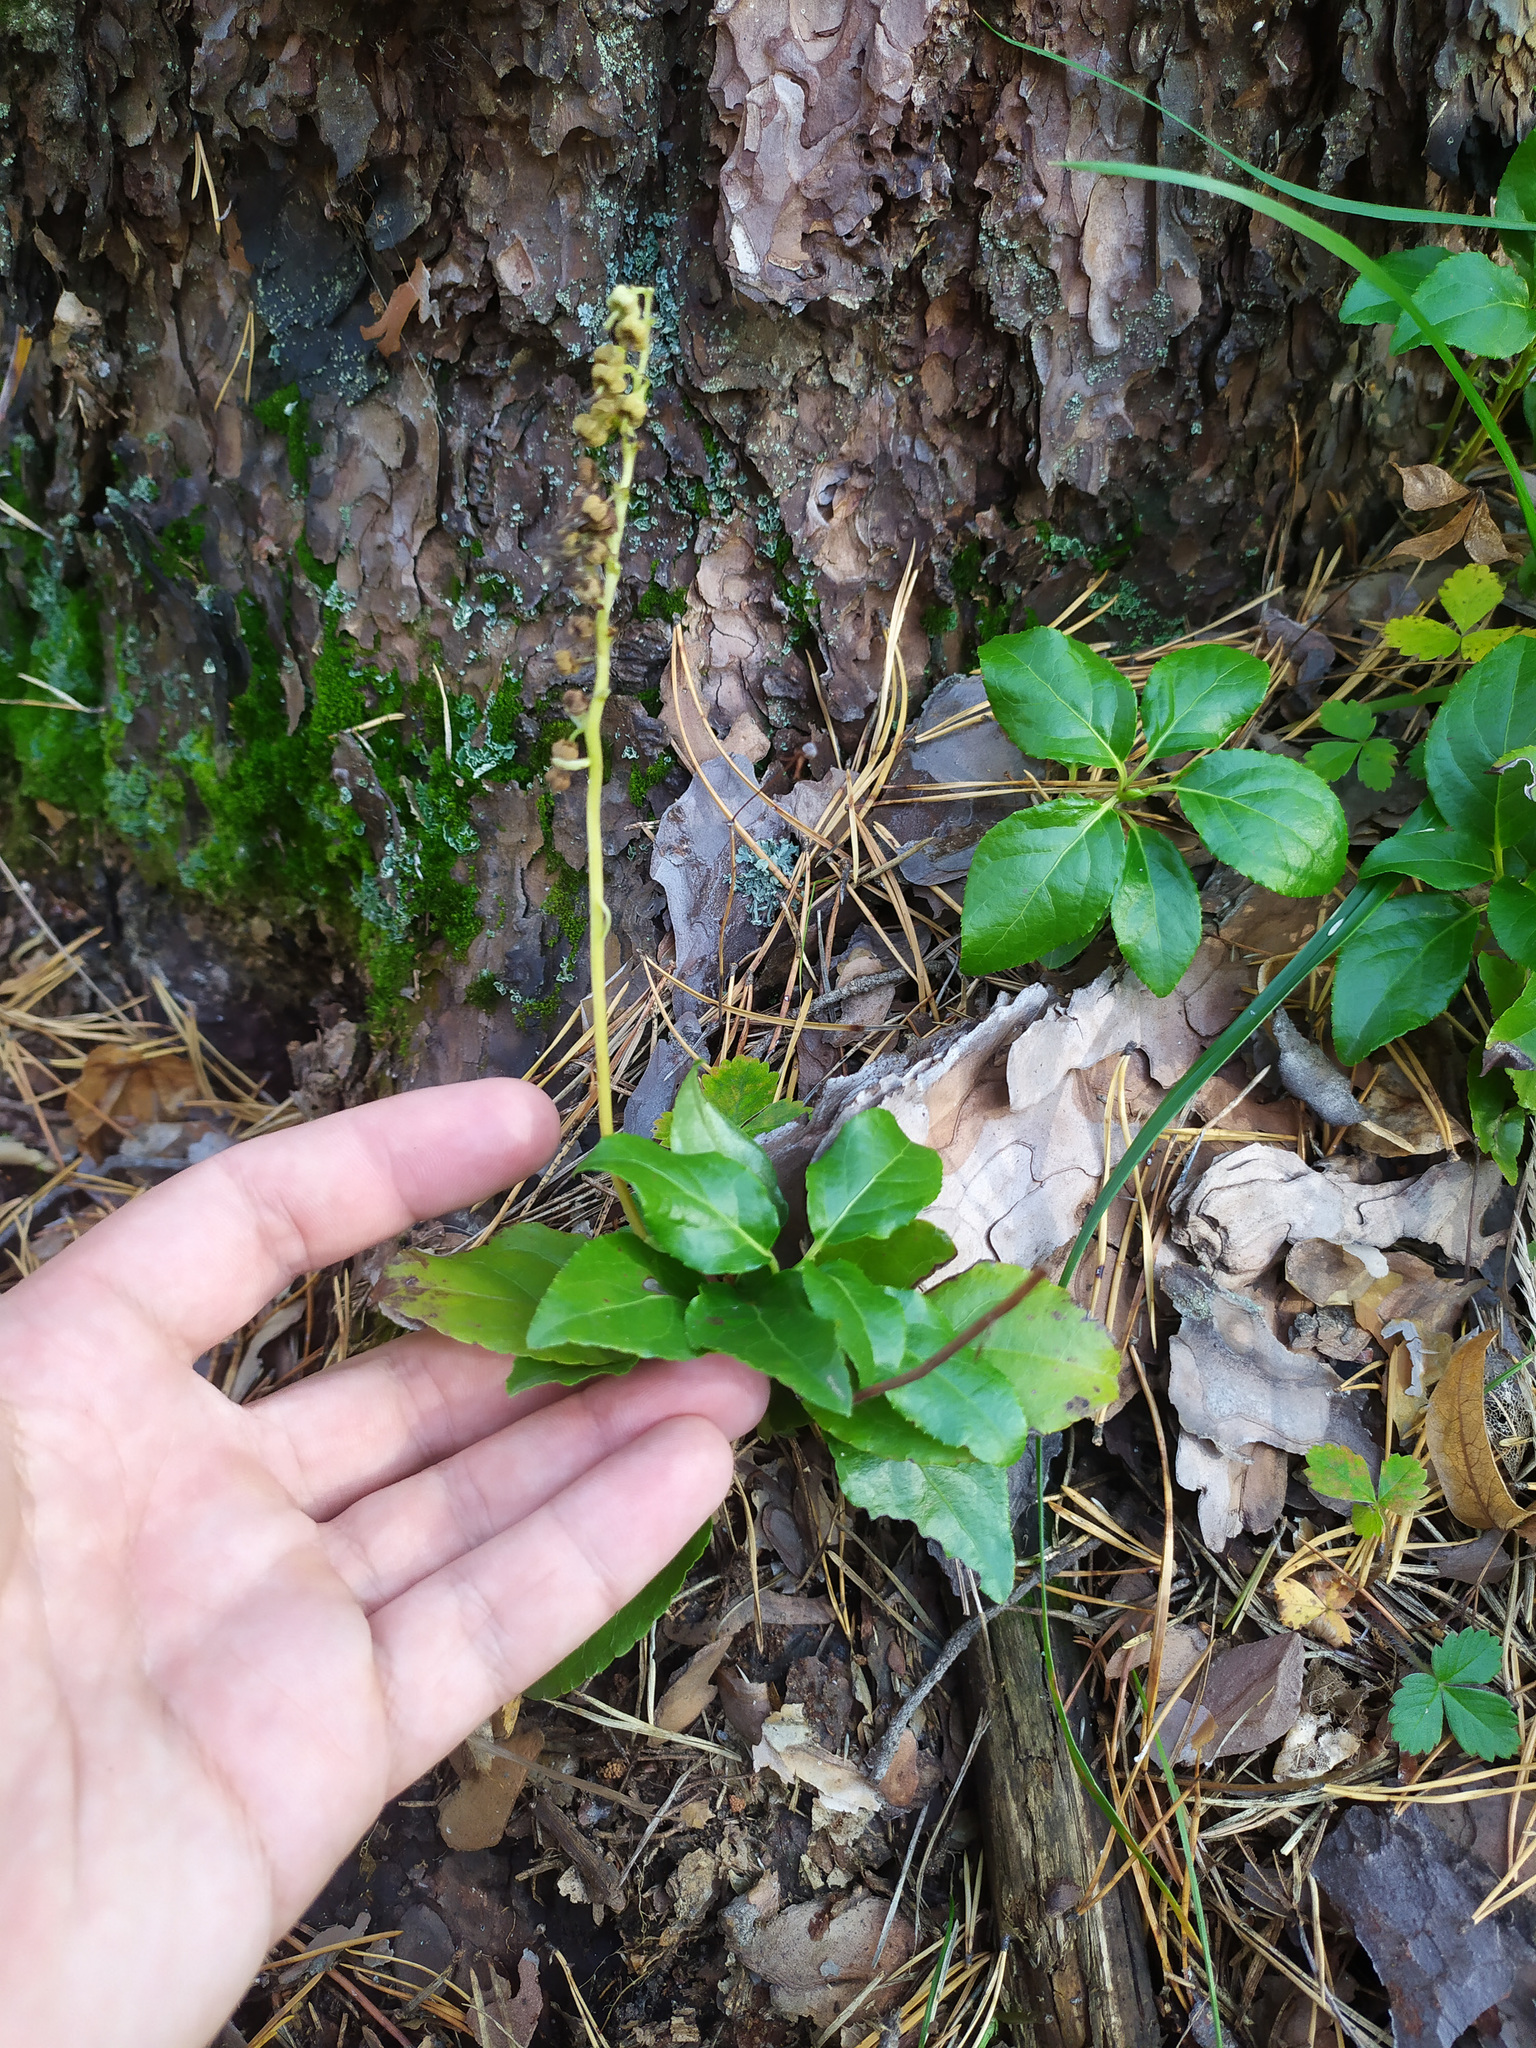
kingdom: Plantae
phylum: Tracheophyta
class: Magnoliopsida
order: Ericales
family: Ericaceae
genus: Orthilia
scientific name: Orthilia secunda
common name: One-sided orthilia
